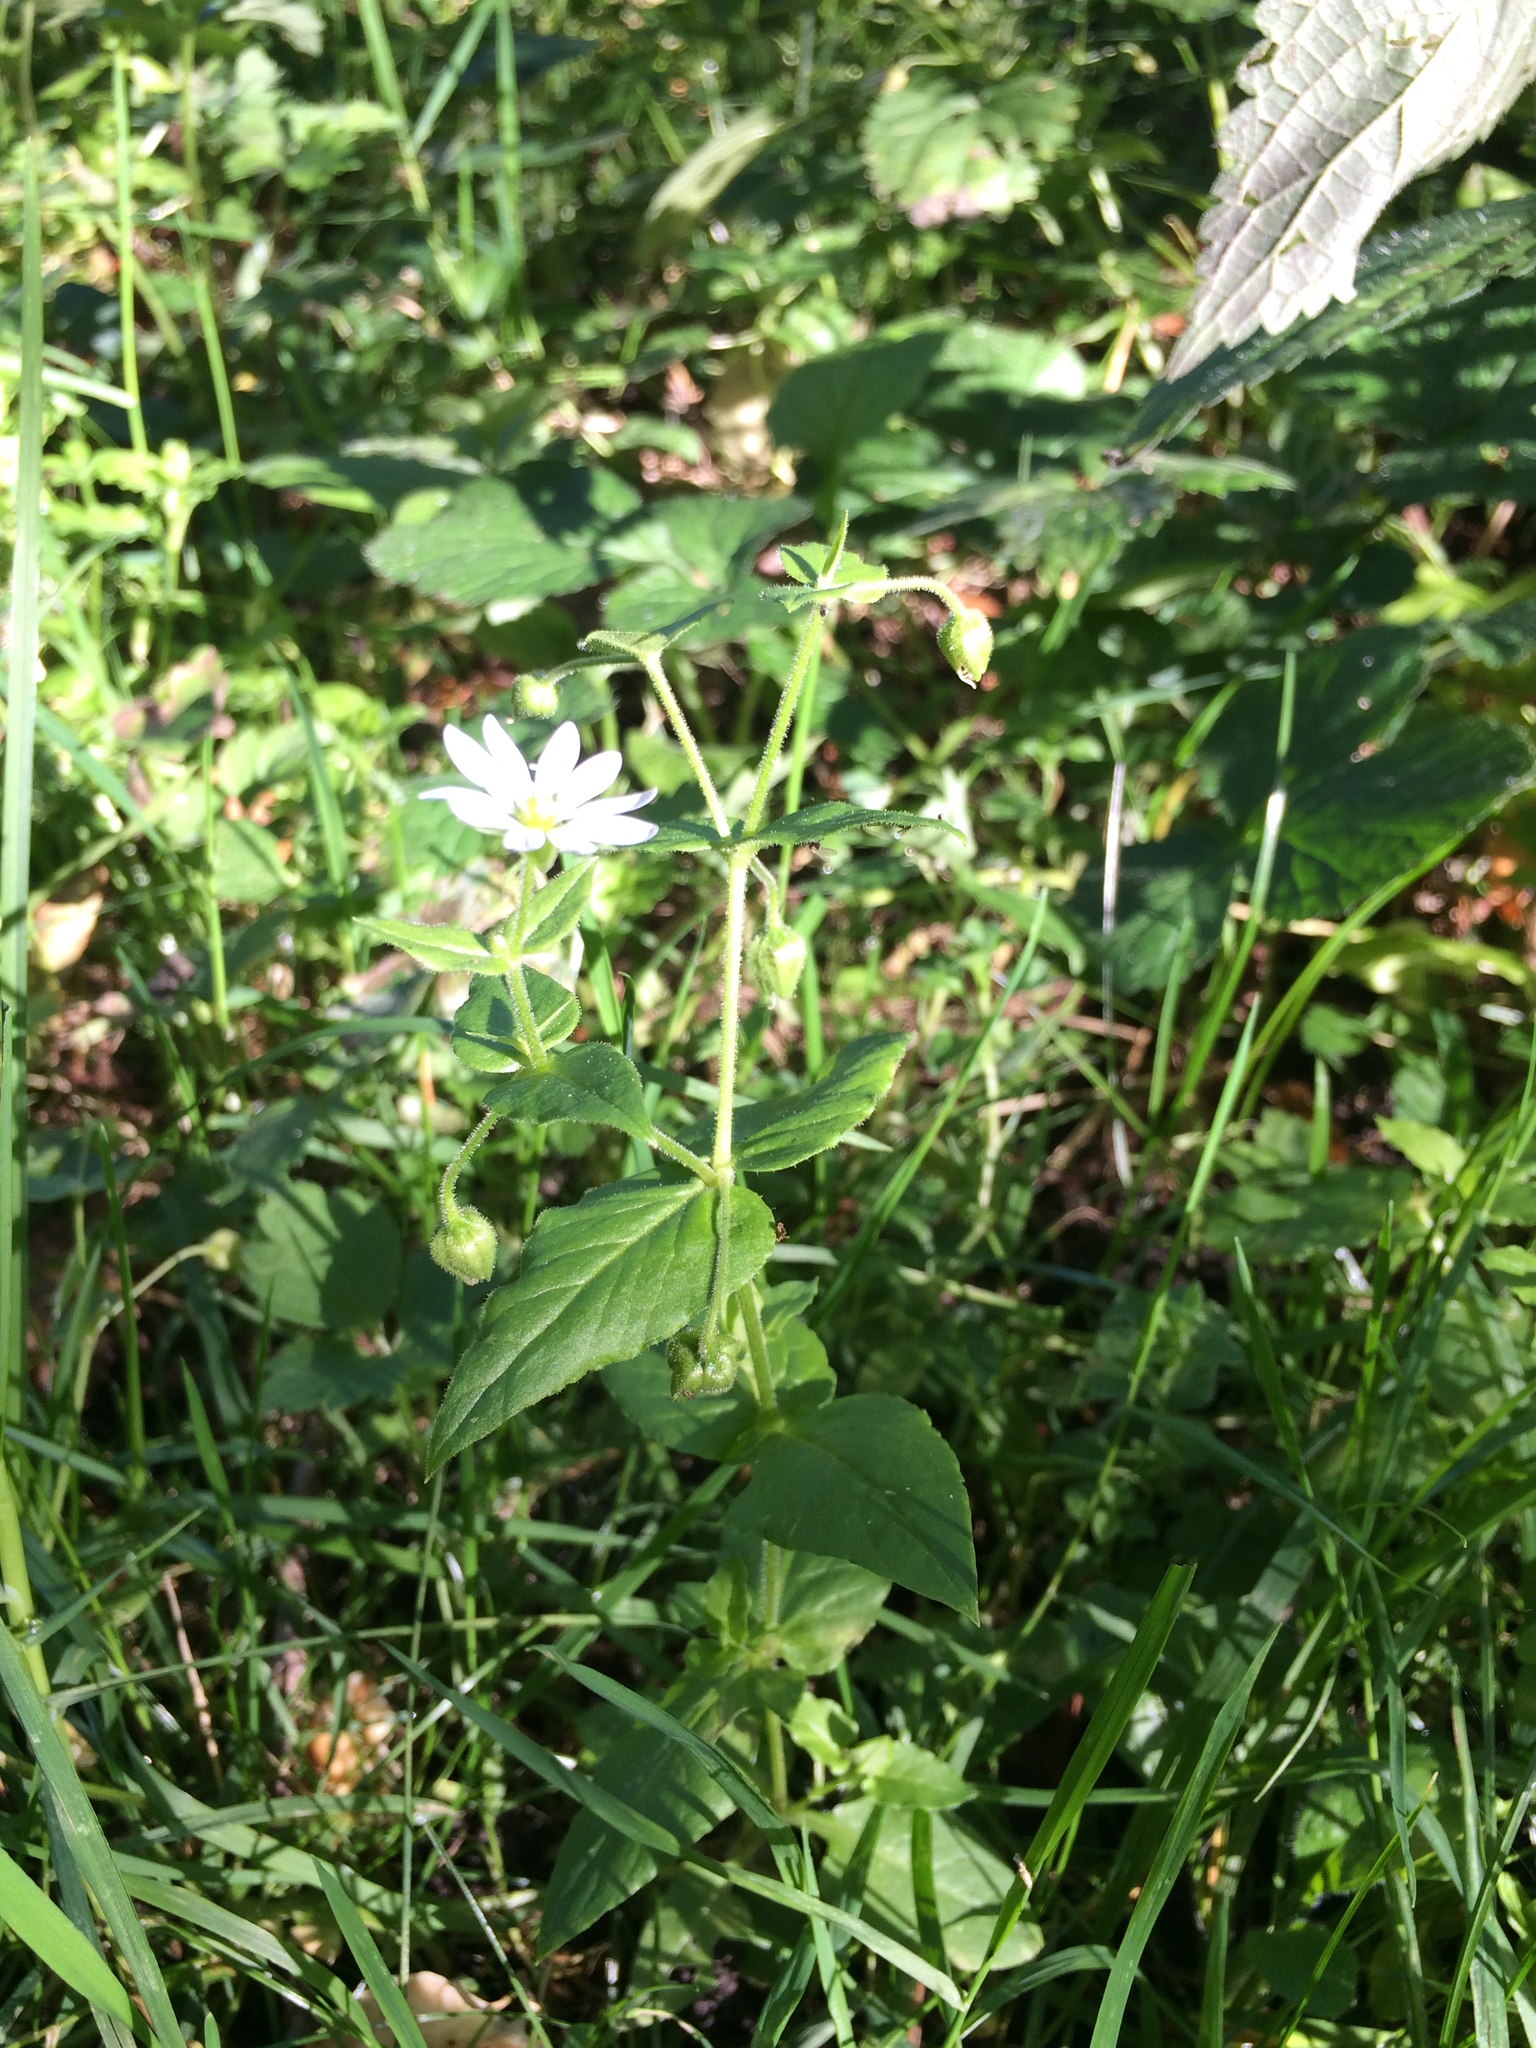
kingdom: Plantae
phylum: Tracheophyta
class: Magnoliopsida
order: Caryophyllales
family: Caryophyllaceae
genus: Stellaria
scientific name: Stellaria aquatica
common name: Water chickweed
